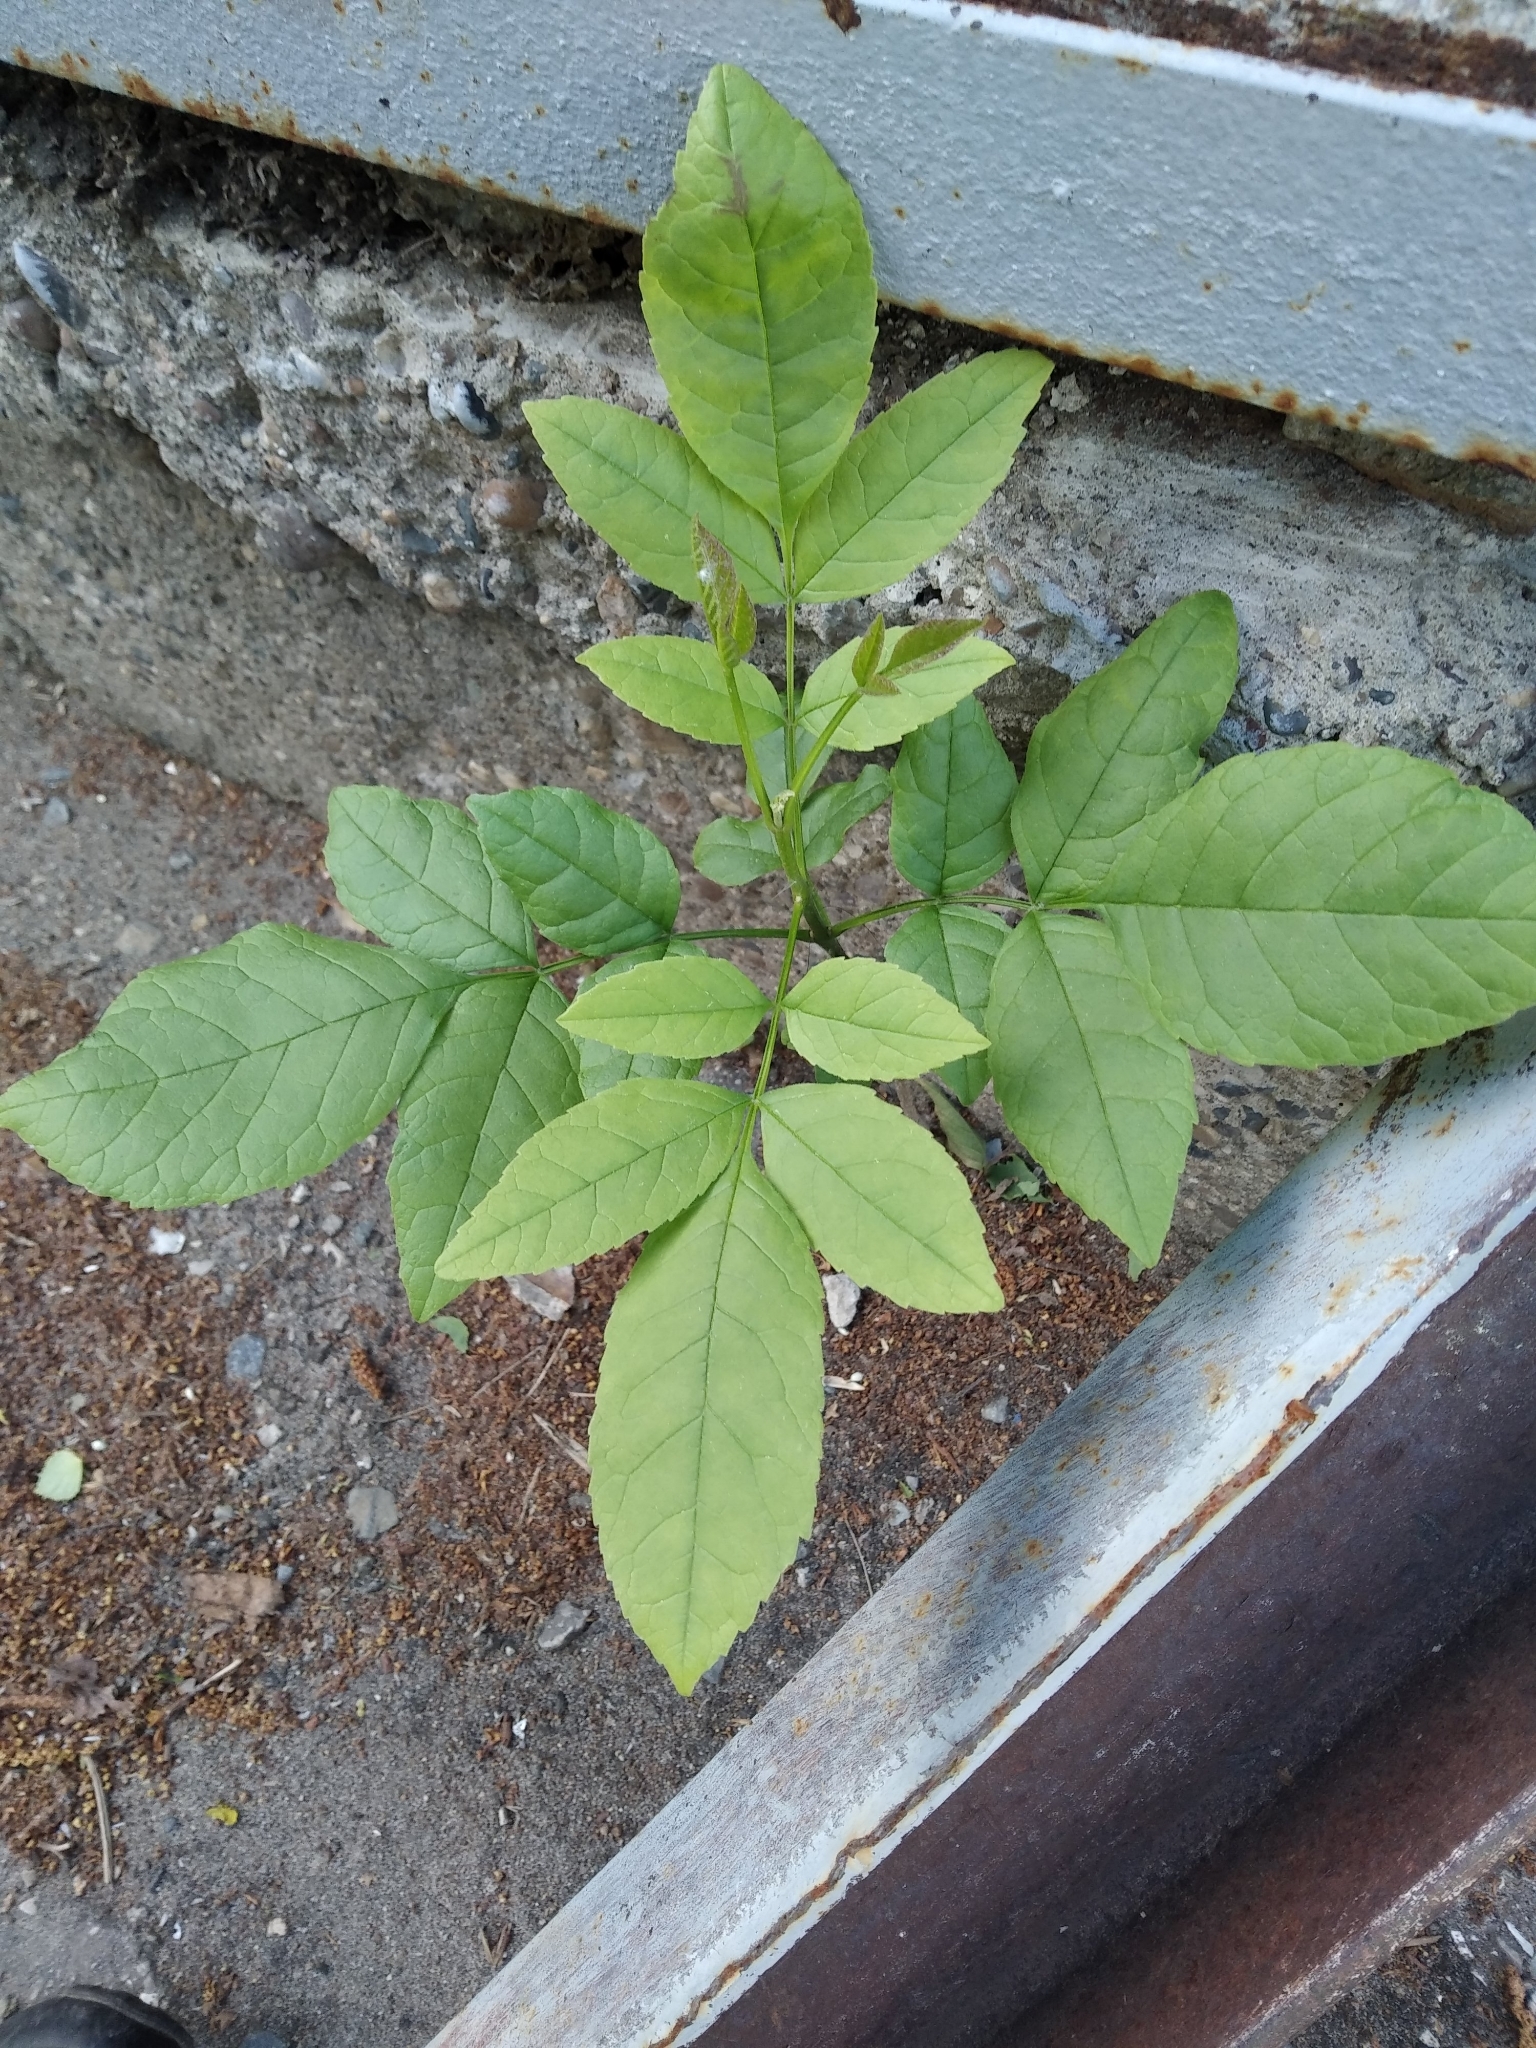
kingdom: Plantae
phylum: Tracheophyta
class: Magnoliopsida
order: Lamiales
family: Oleaceae
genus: Fraxinus
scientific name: Fraxinus pennsylvanica
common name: Green ash
